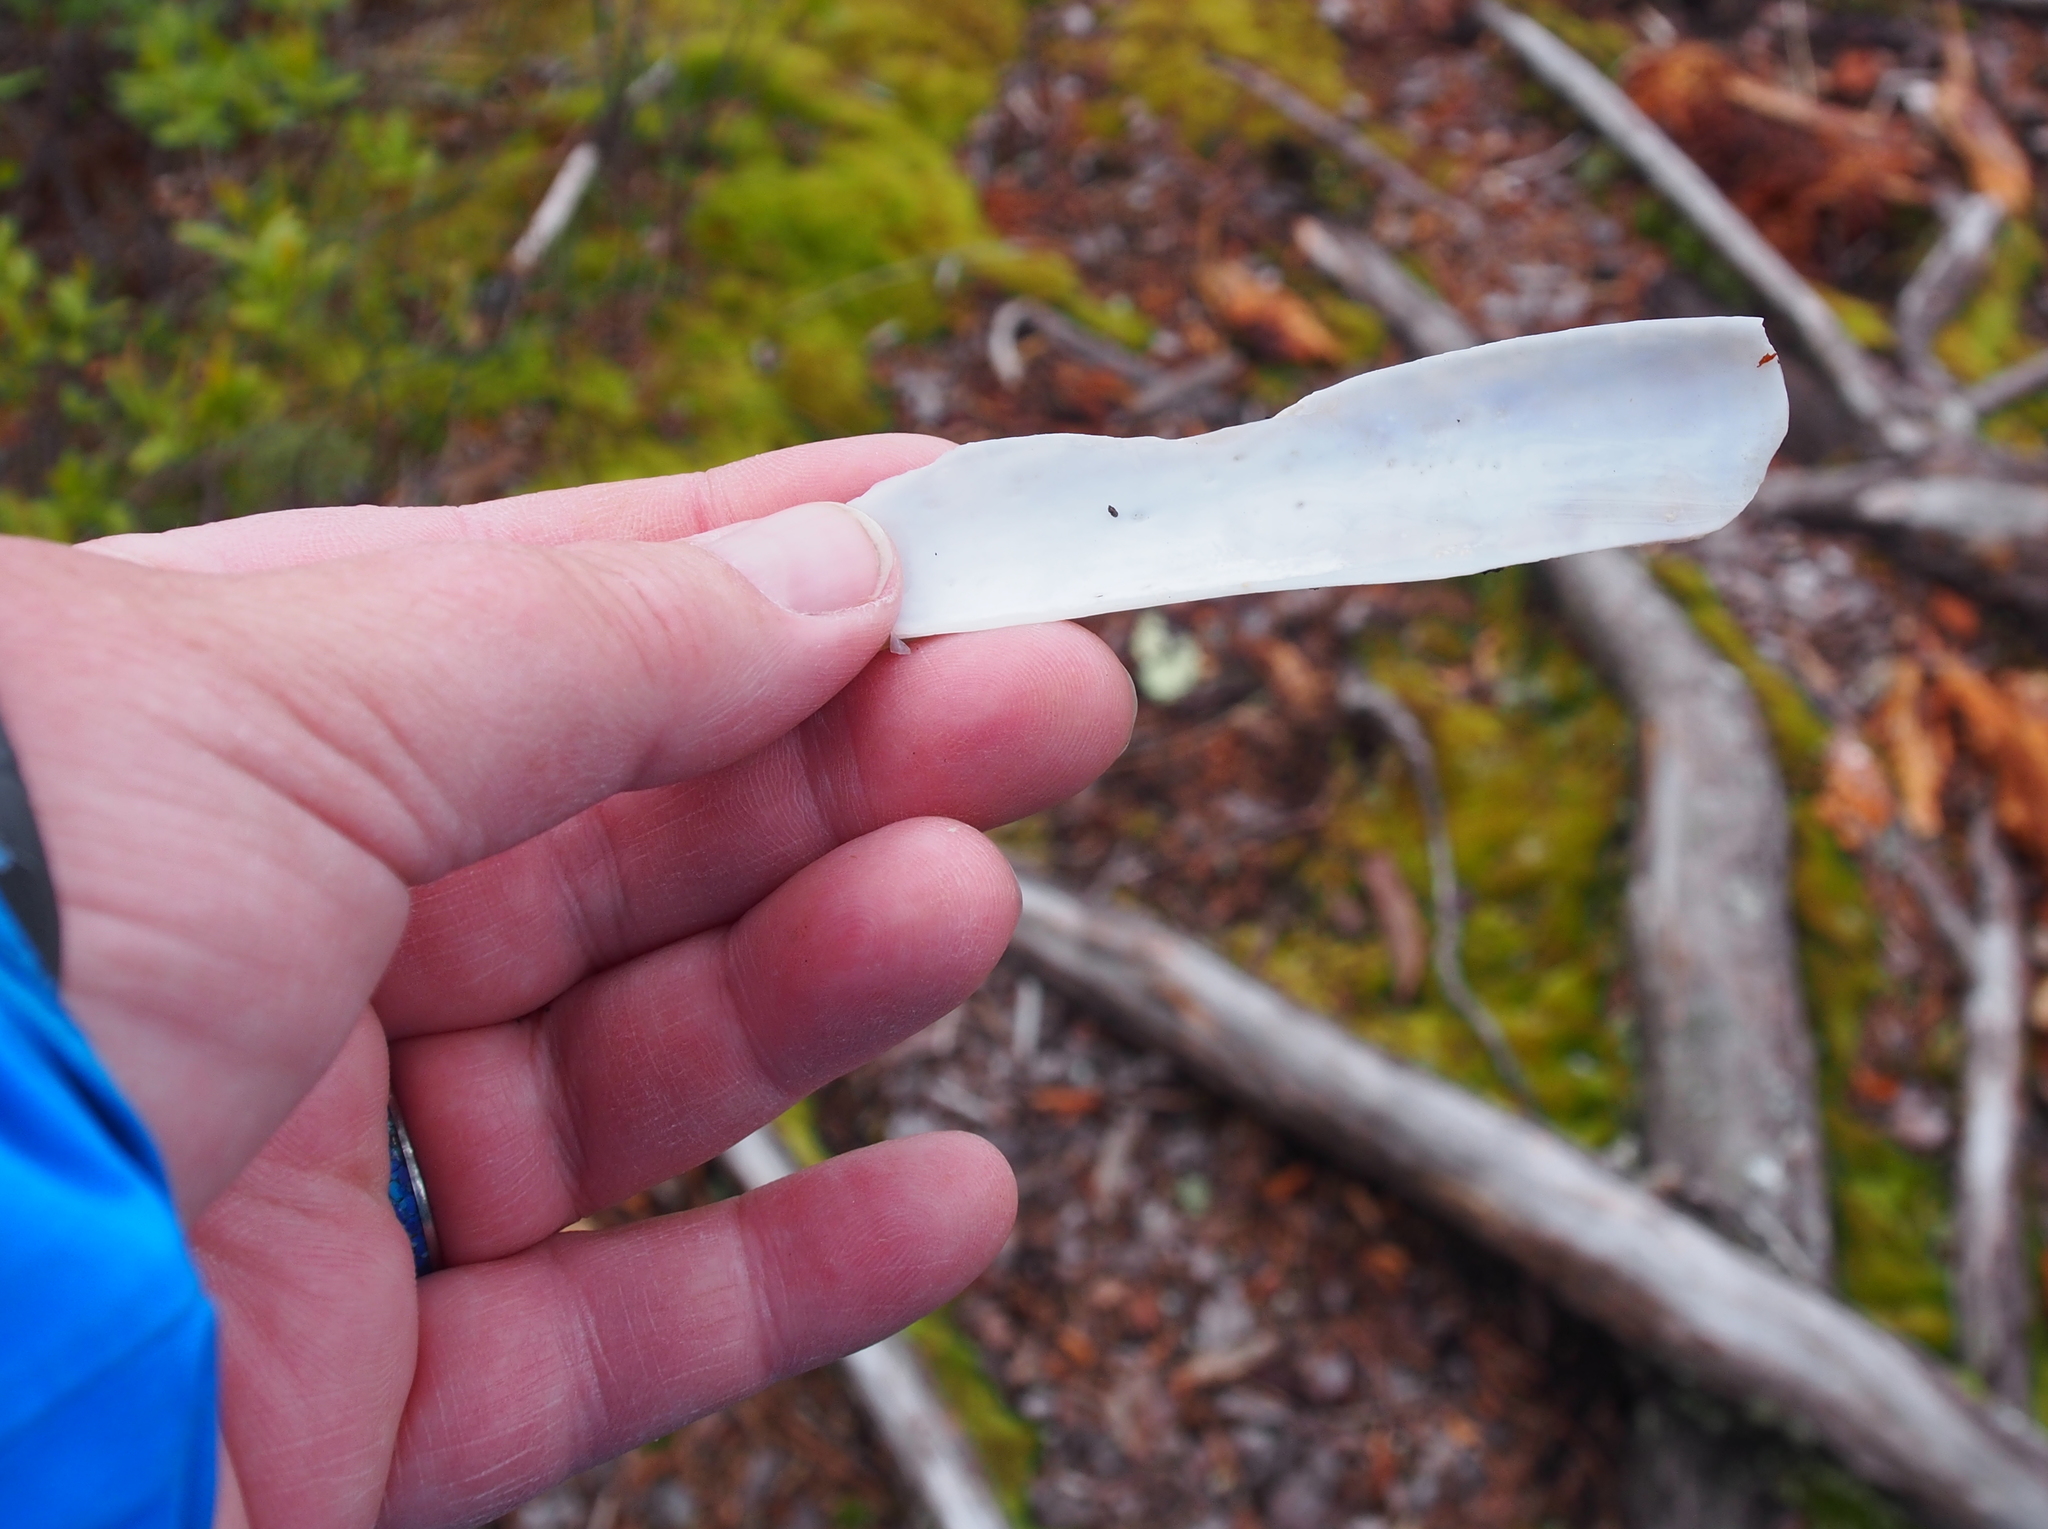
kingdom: Animalia
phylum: Mollusca
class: Bivalvia
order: Adapedonta
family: Pharidae
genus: Ensis
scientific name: Ensis leei
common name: American jack knife clam
